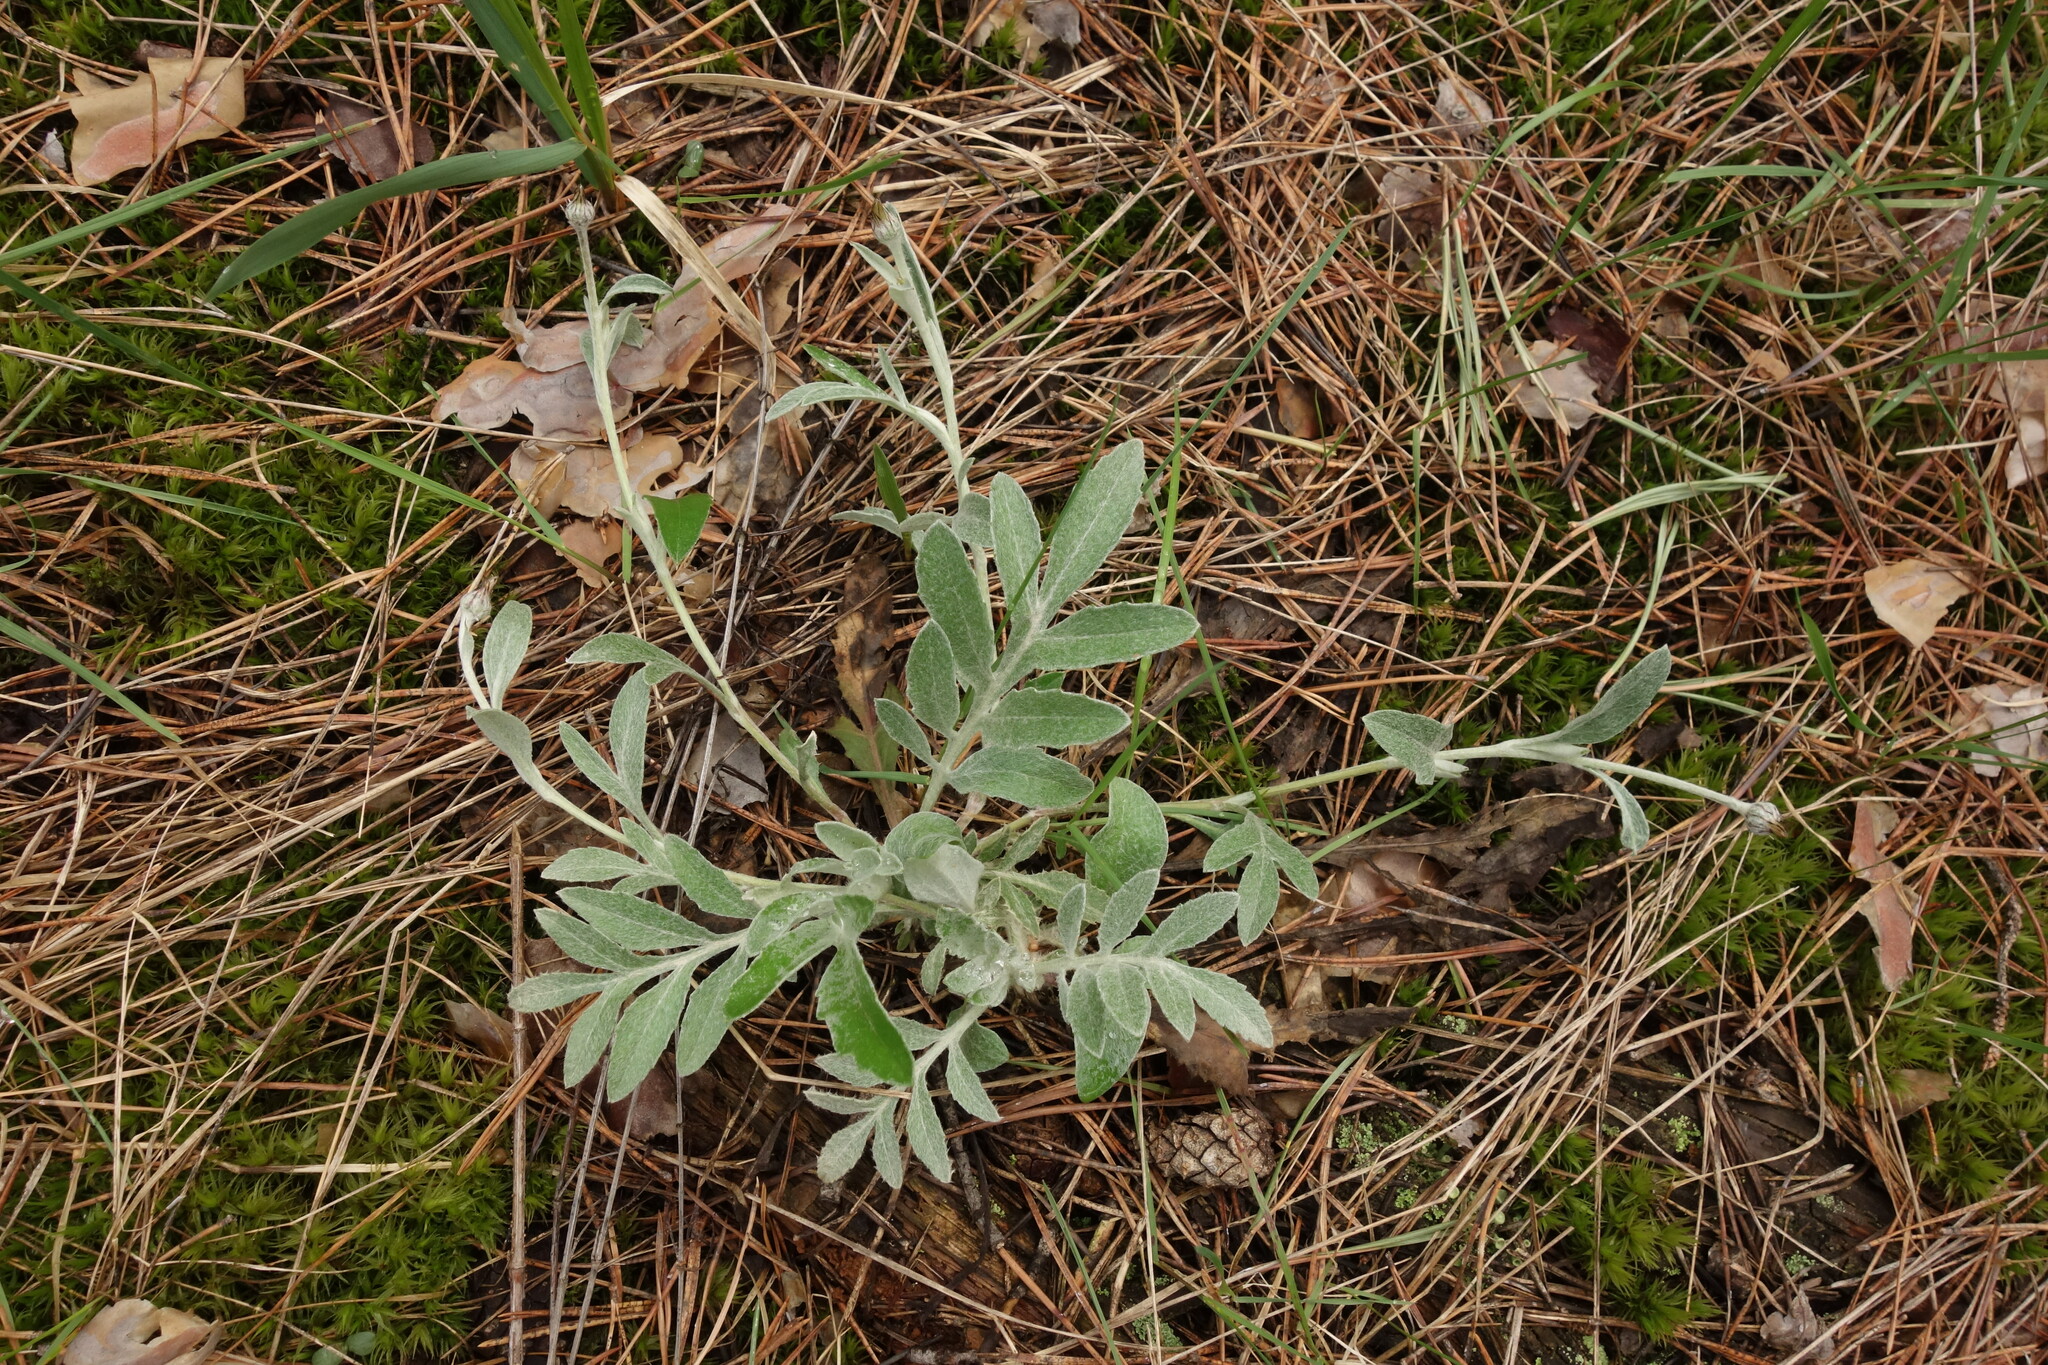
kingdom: Plantae
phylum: Tracheophyta
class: Magnoliopsida
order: Asterales
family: Asteraceae
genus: Psephellus
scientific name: Psephellus sumensis
